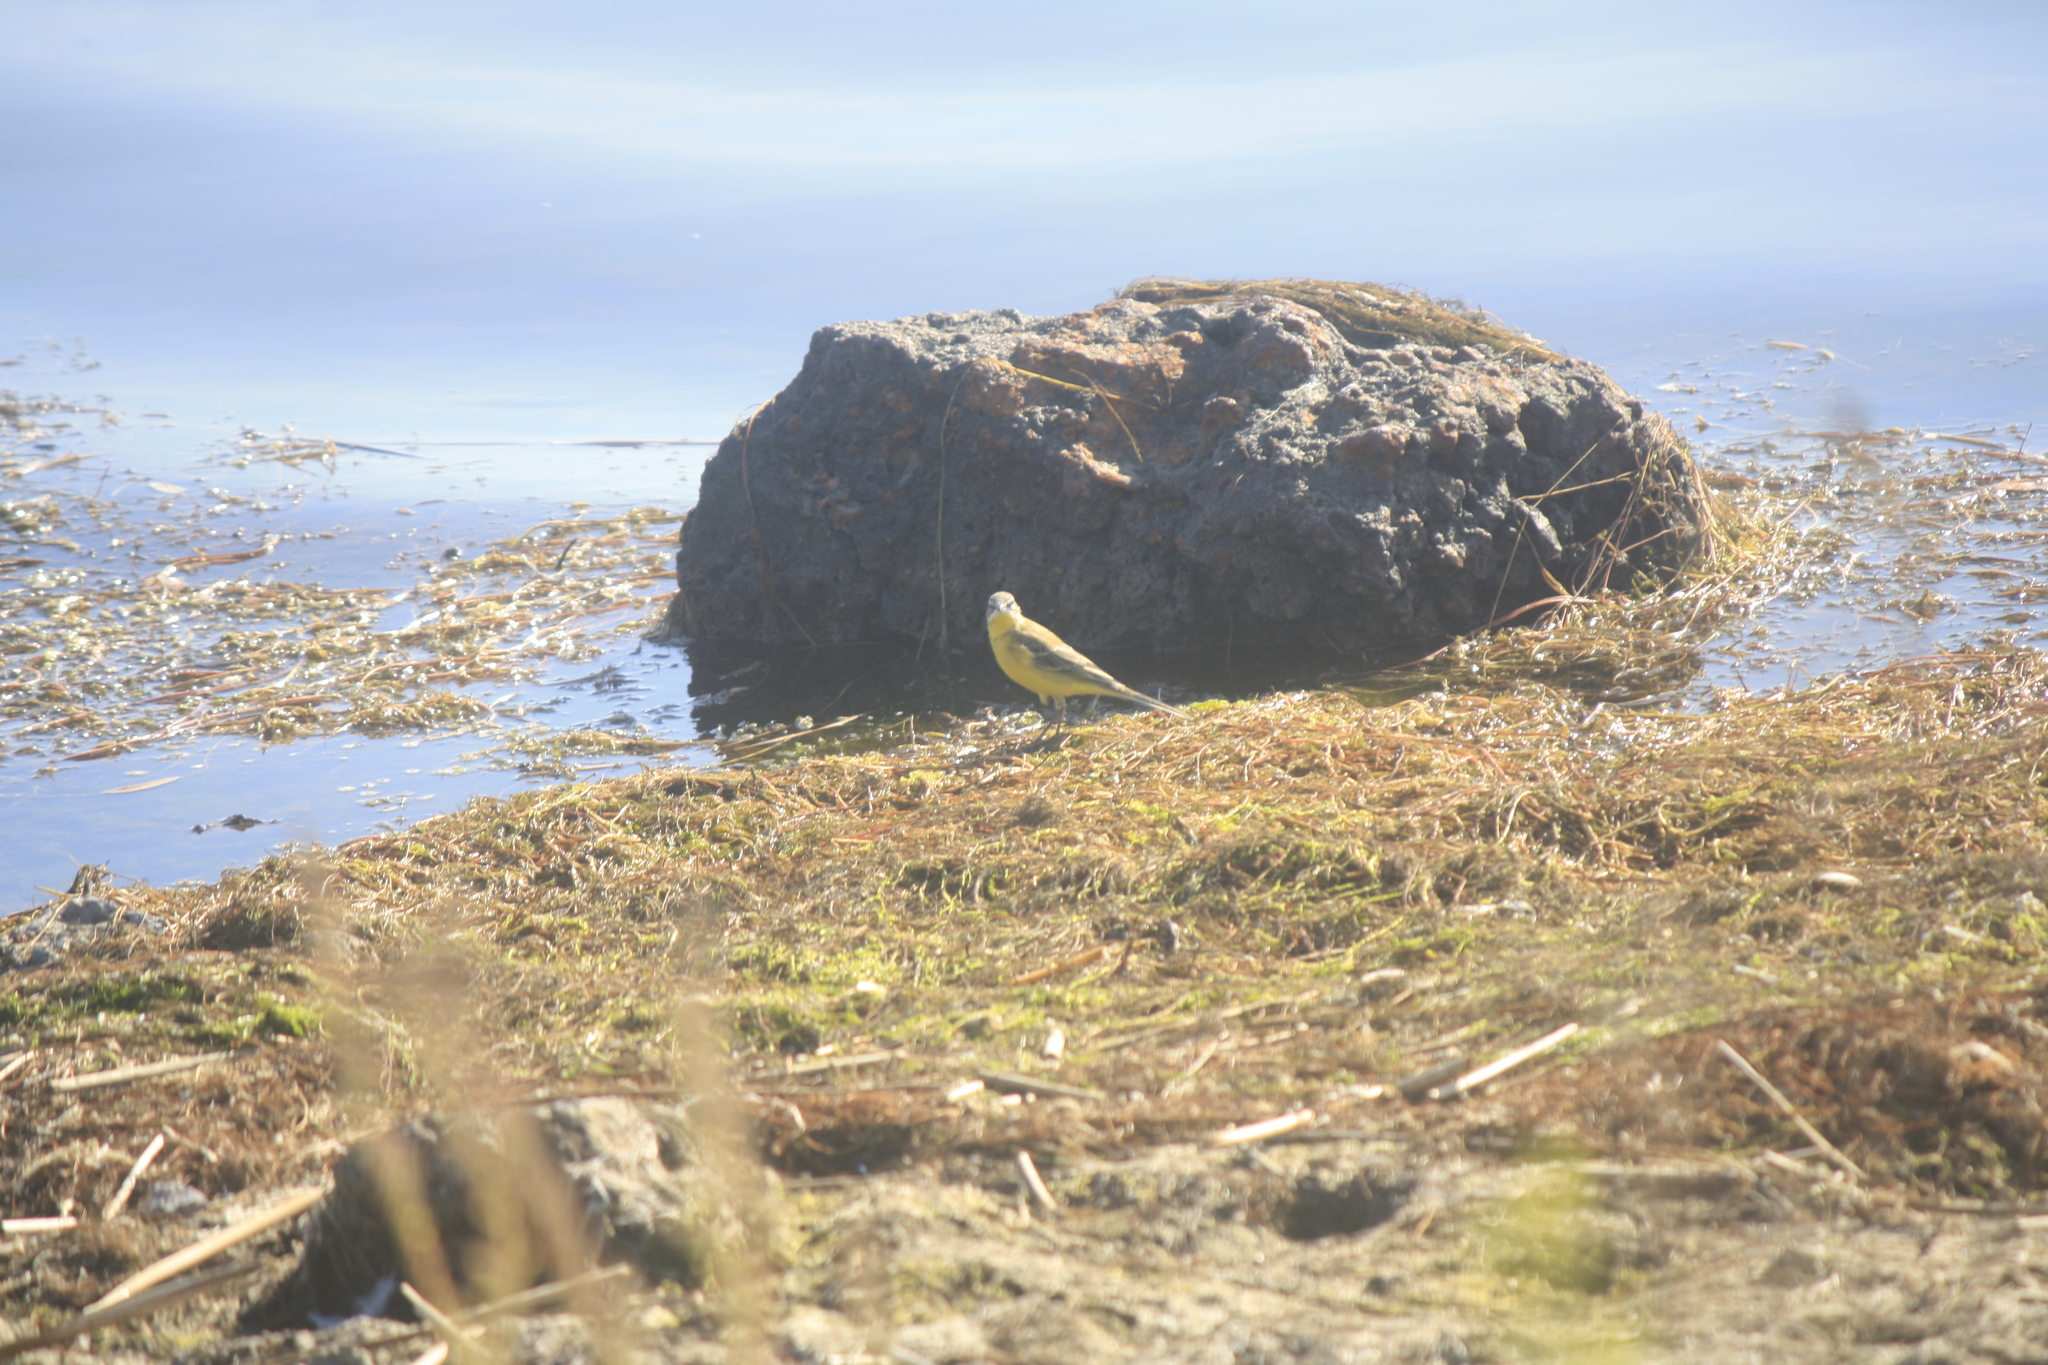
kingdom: Animalia
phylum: Chordata
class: Aves
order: Passeriformes
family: Motacillidae
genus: Motacilla
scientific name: Motacilla flava
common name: Western yellow wagtail
